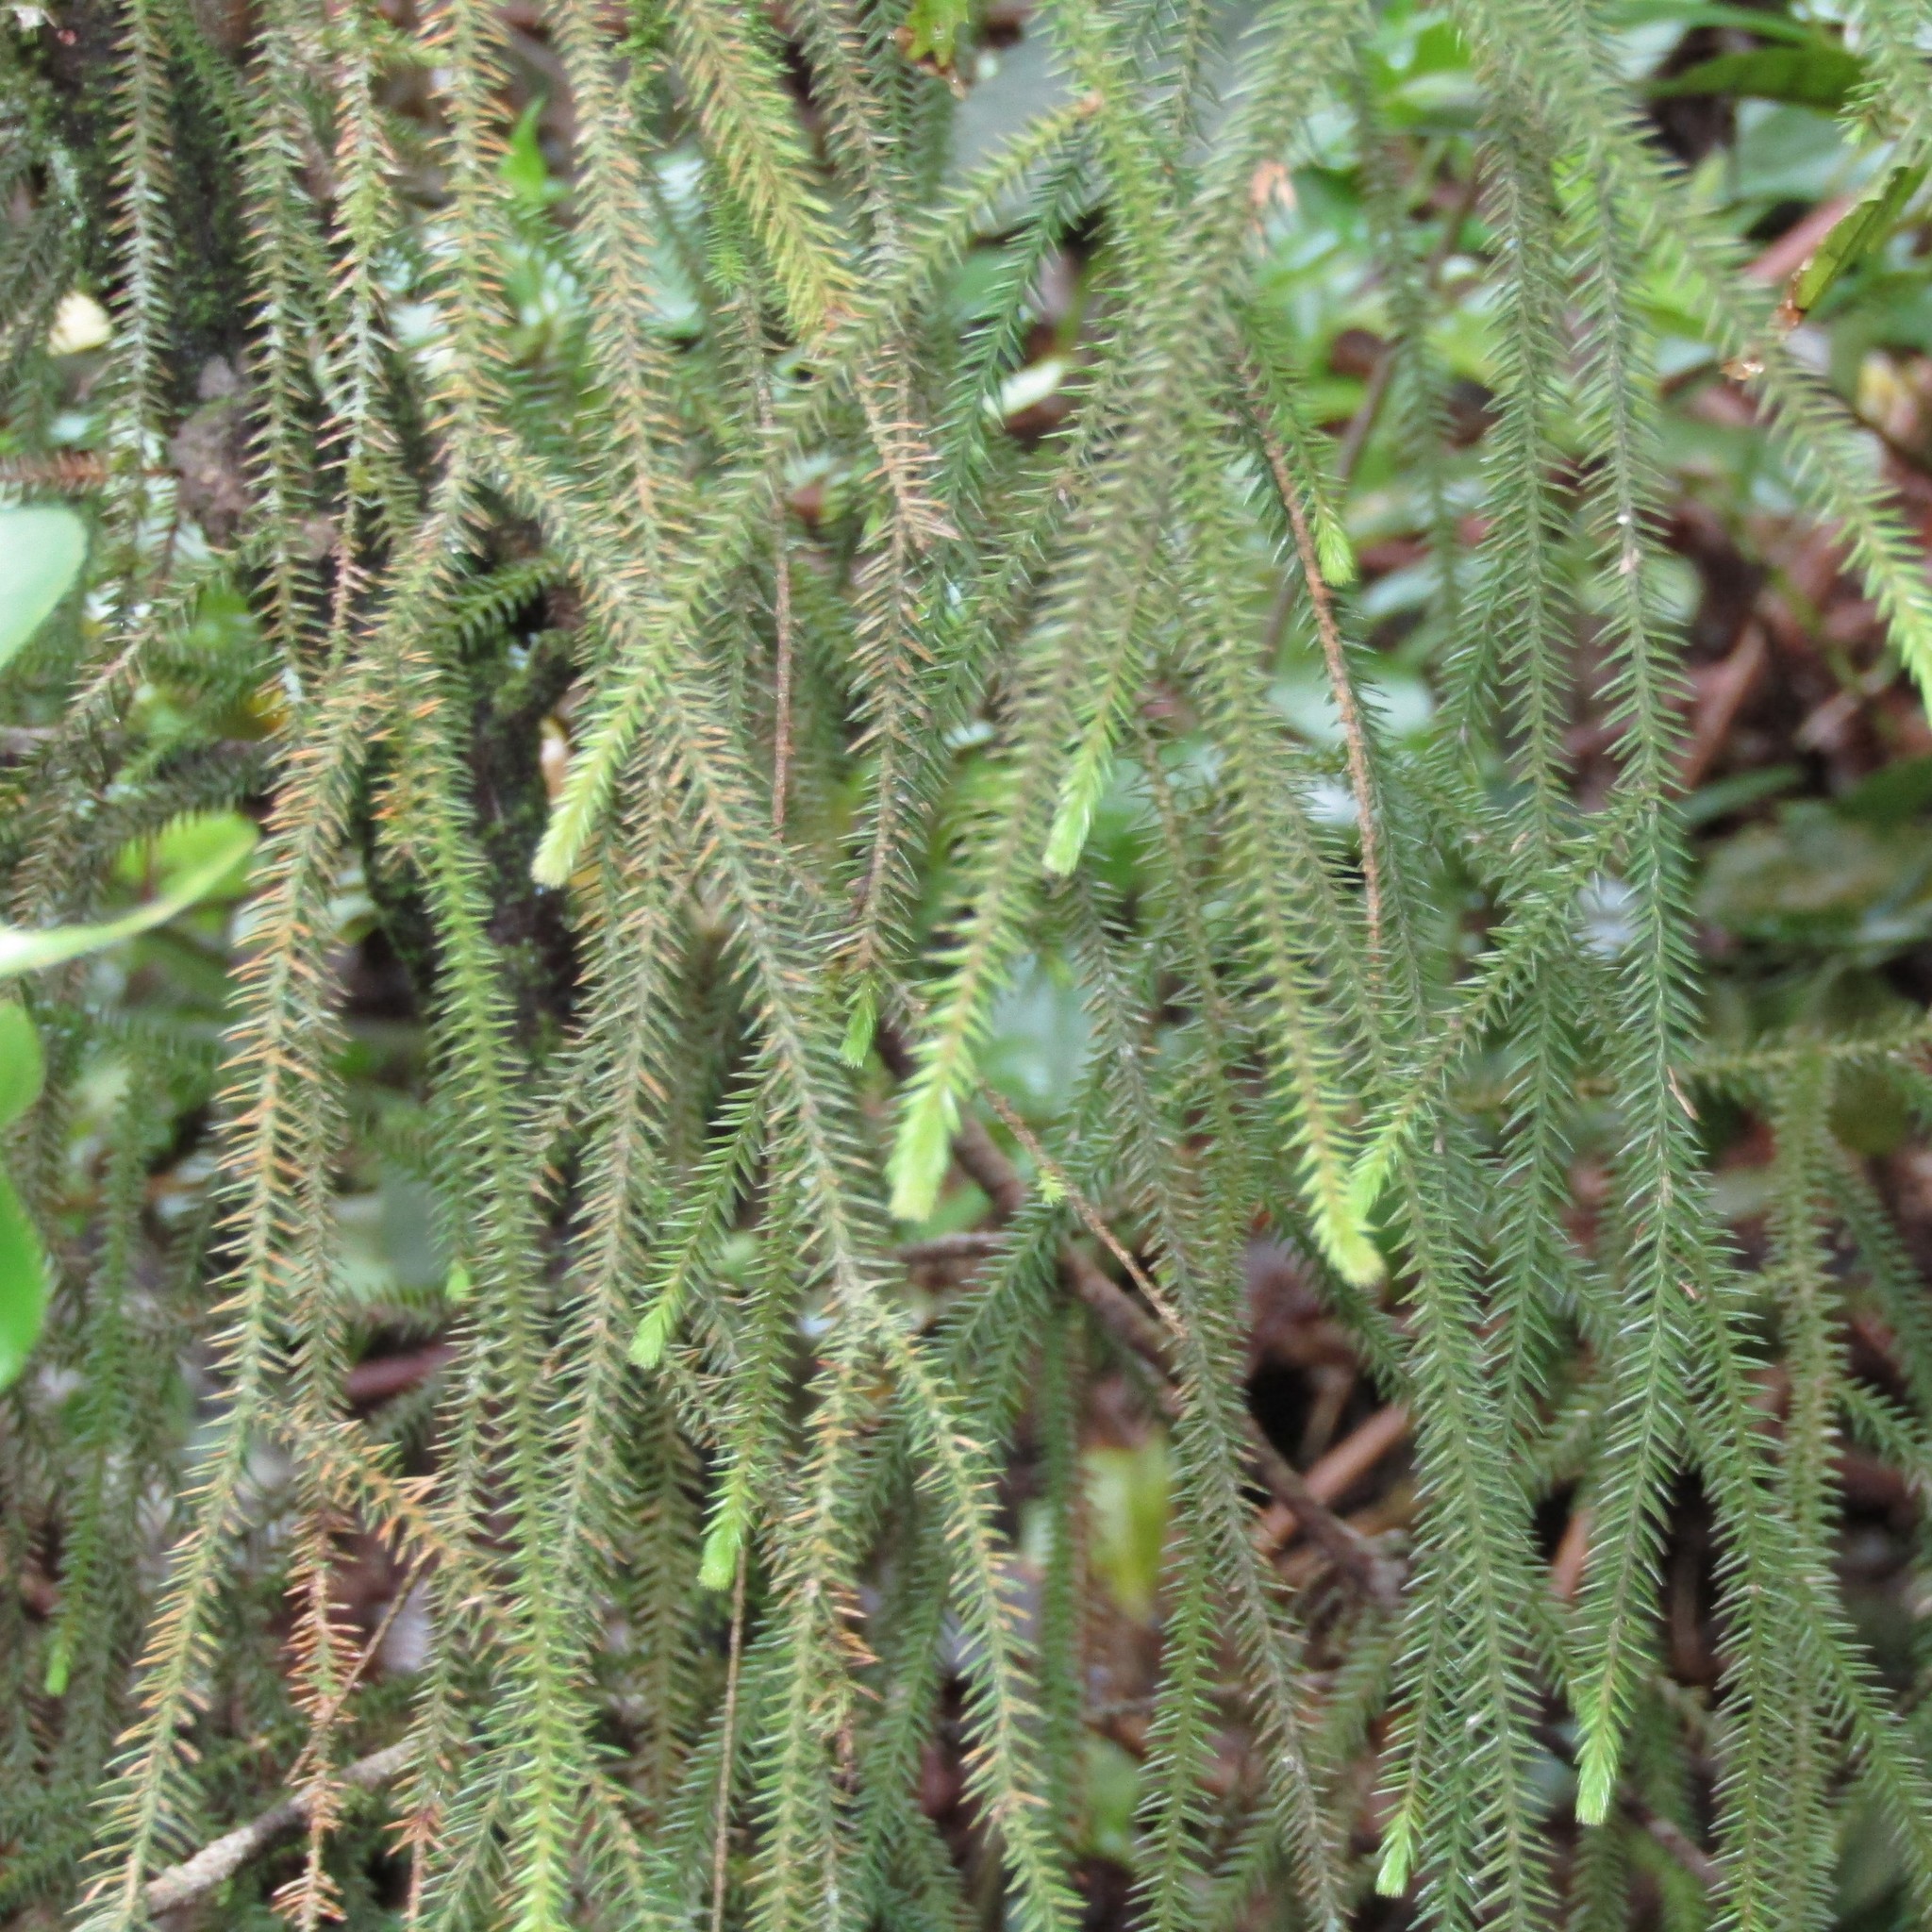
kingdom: Plantae
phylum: Tracheophyta
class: Pinopsida
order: Pinales
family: Podocarpaceae
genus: Dacrydium
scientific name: Dacrydium cupressinum
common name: Red pine
